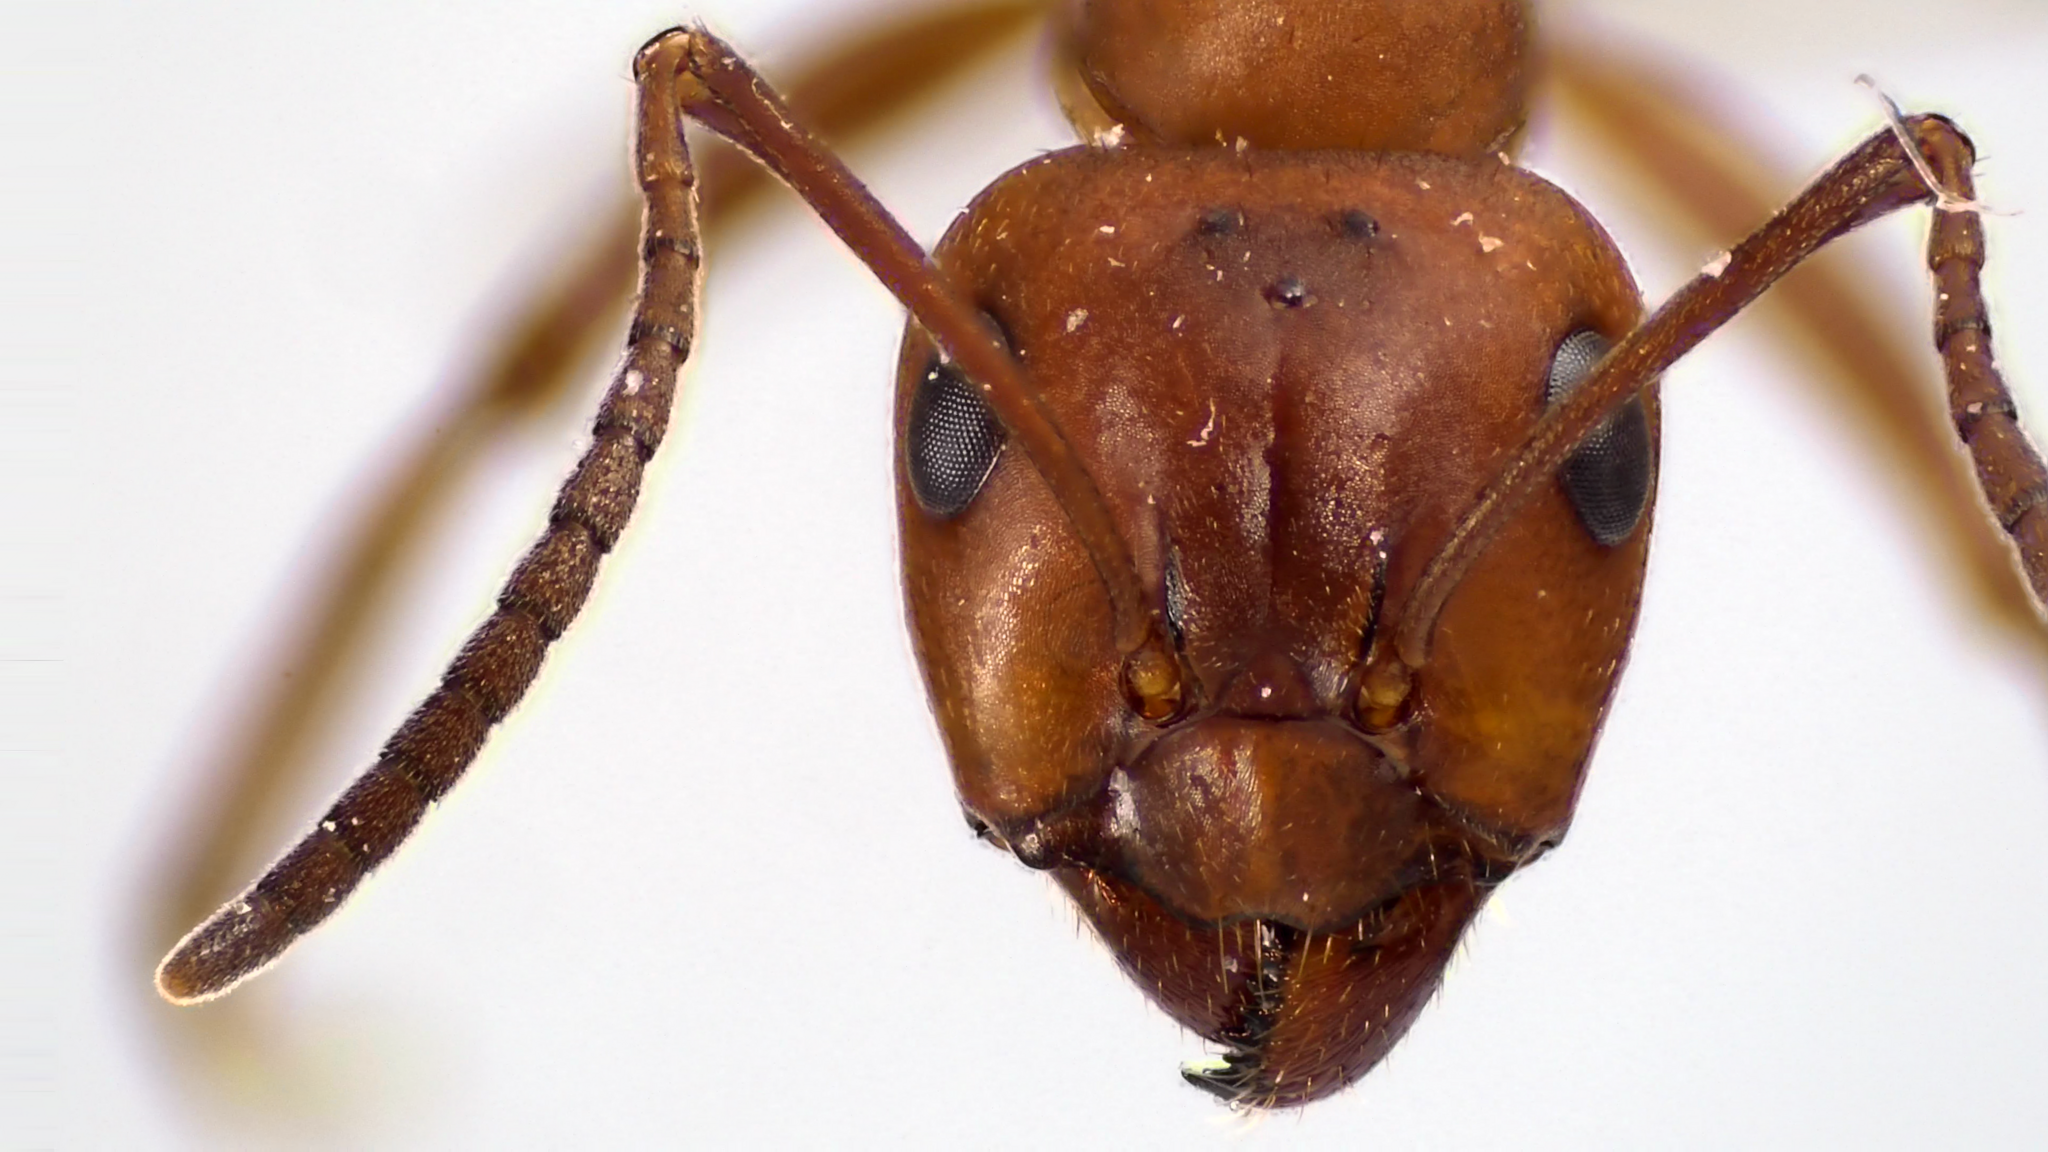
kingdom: Animalia
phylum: Arthropoda
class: Insecta
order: Hymenoptera
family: Formicidae
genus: Formica
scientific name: Formica pergandei
